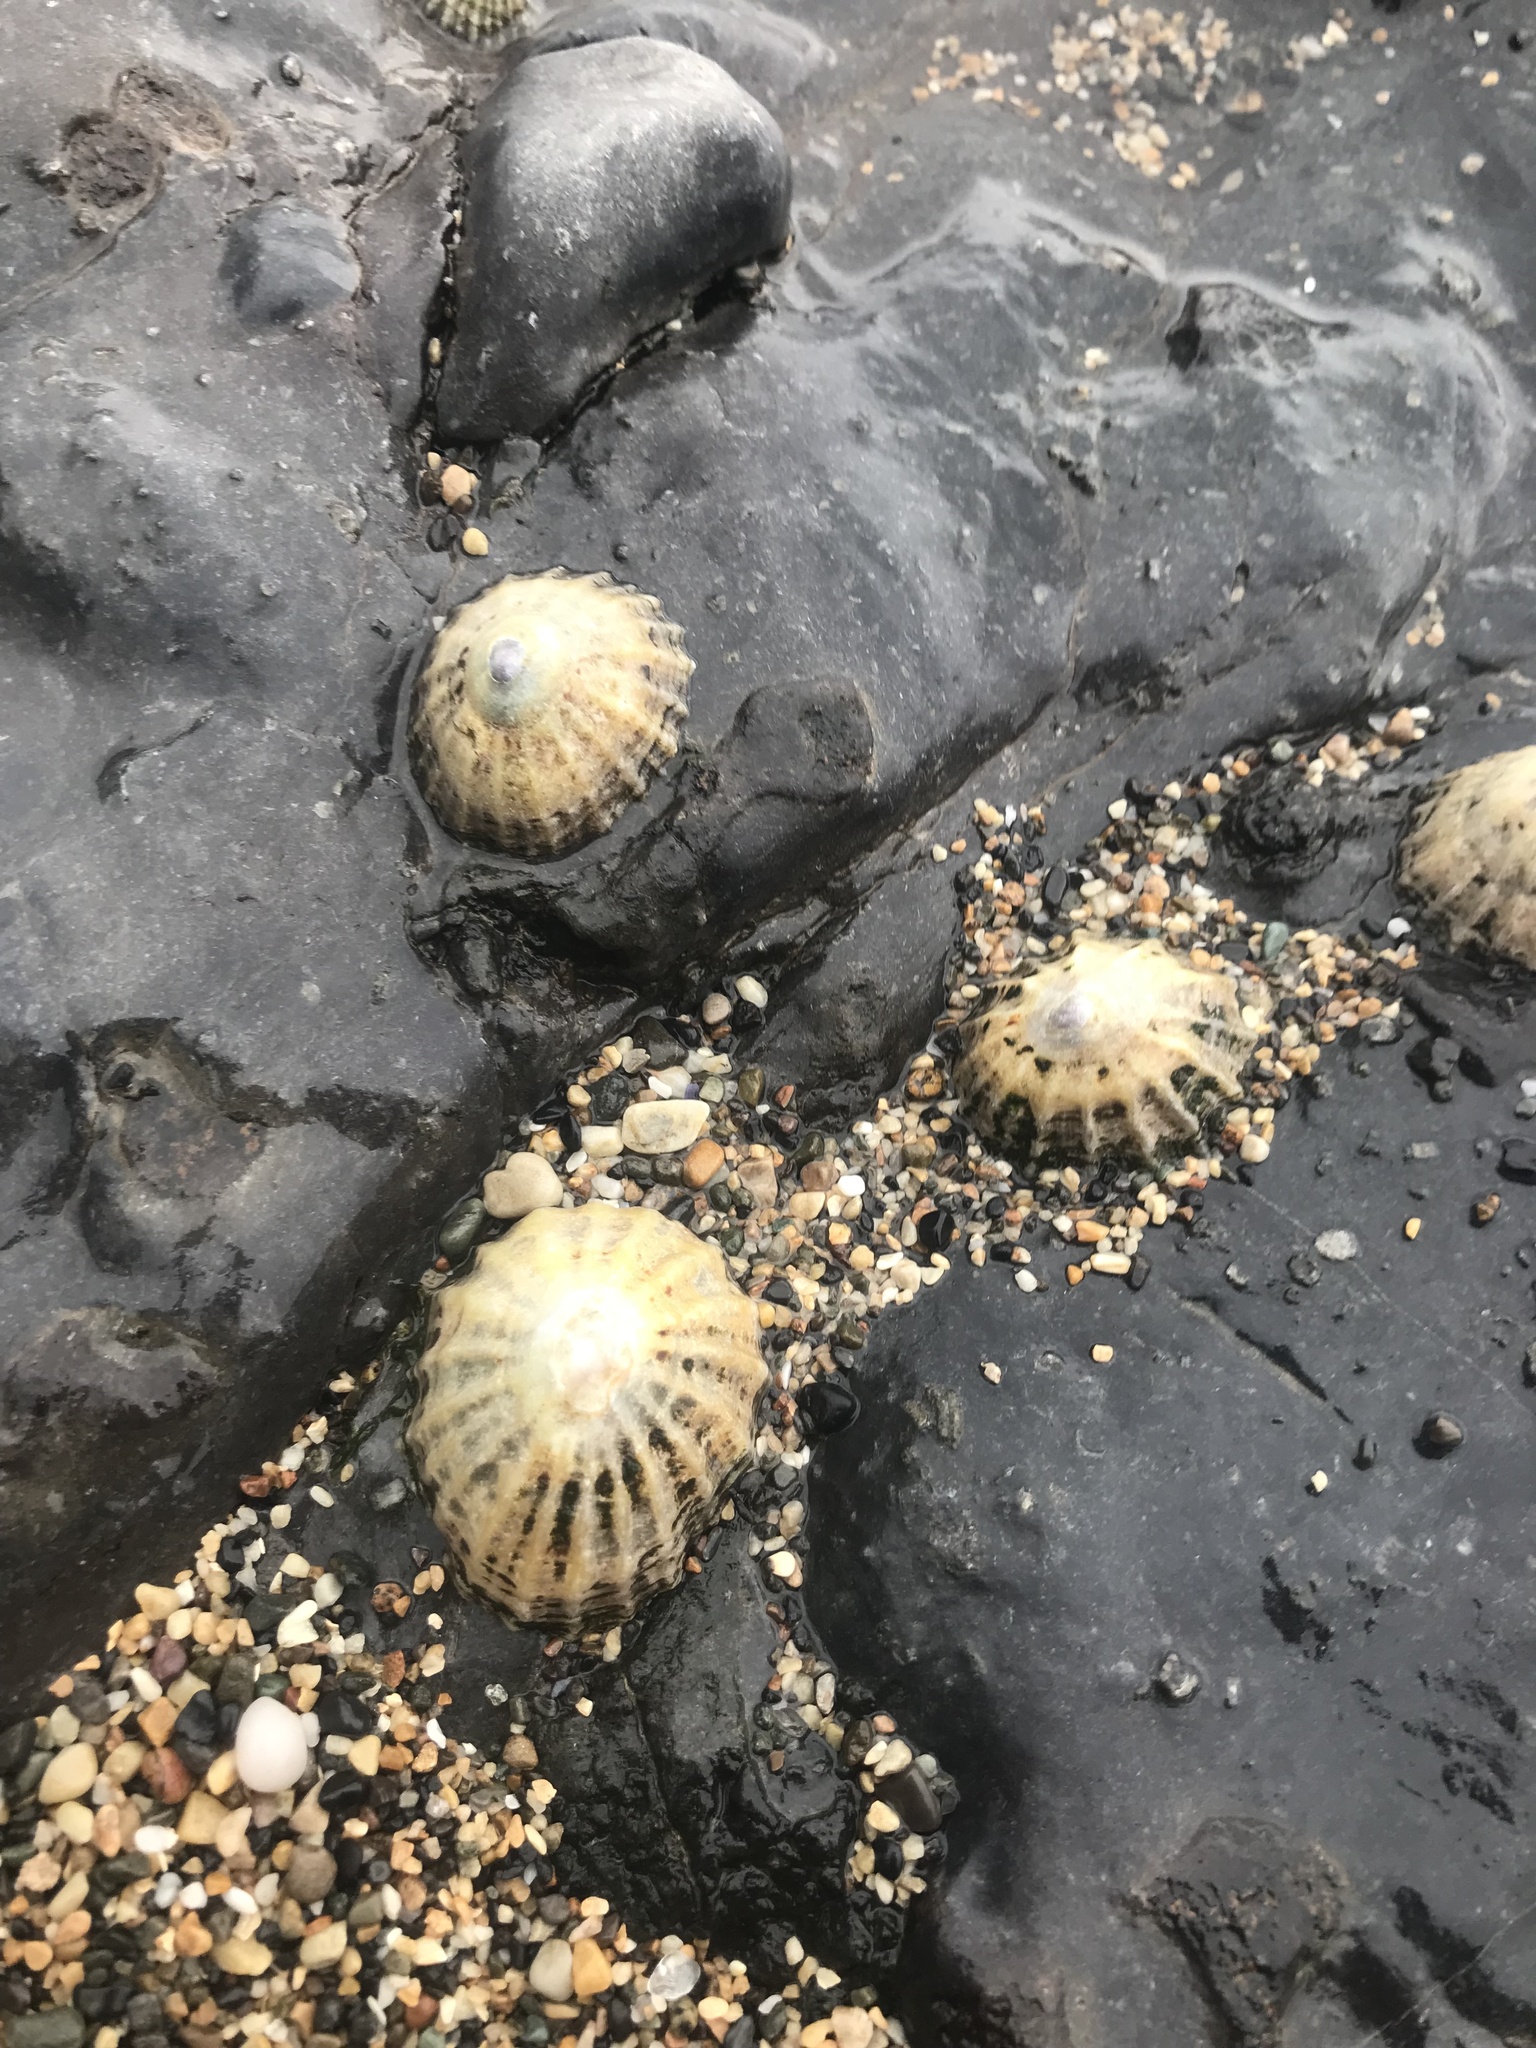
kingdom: Animalia
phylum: Mollusca
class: Gastropoda
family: Patellidae
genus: Patella
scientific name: Patella vulgata
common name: Common limpet
